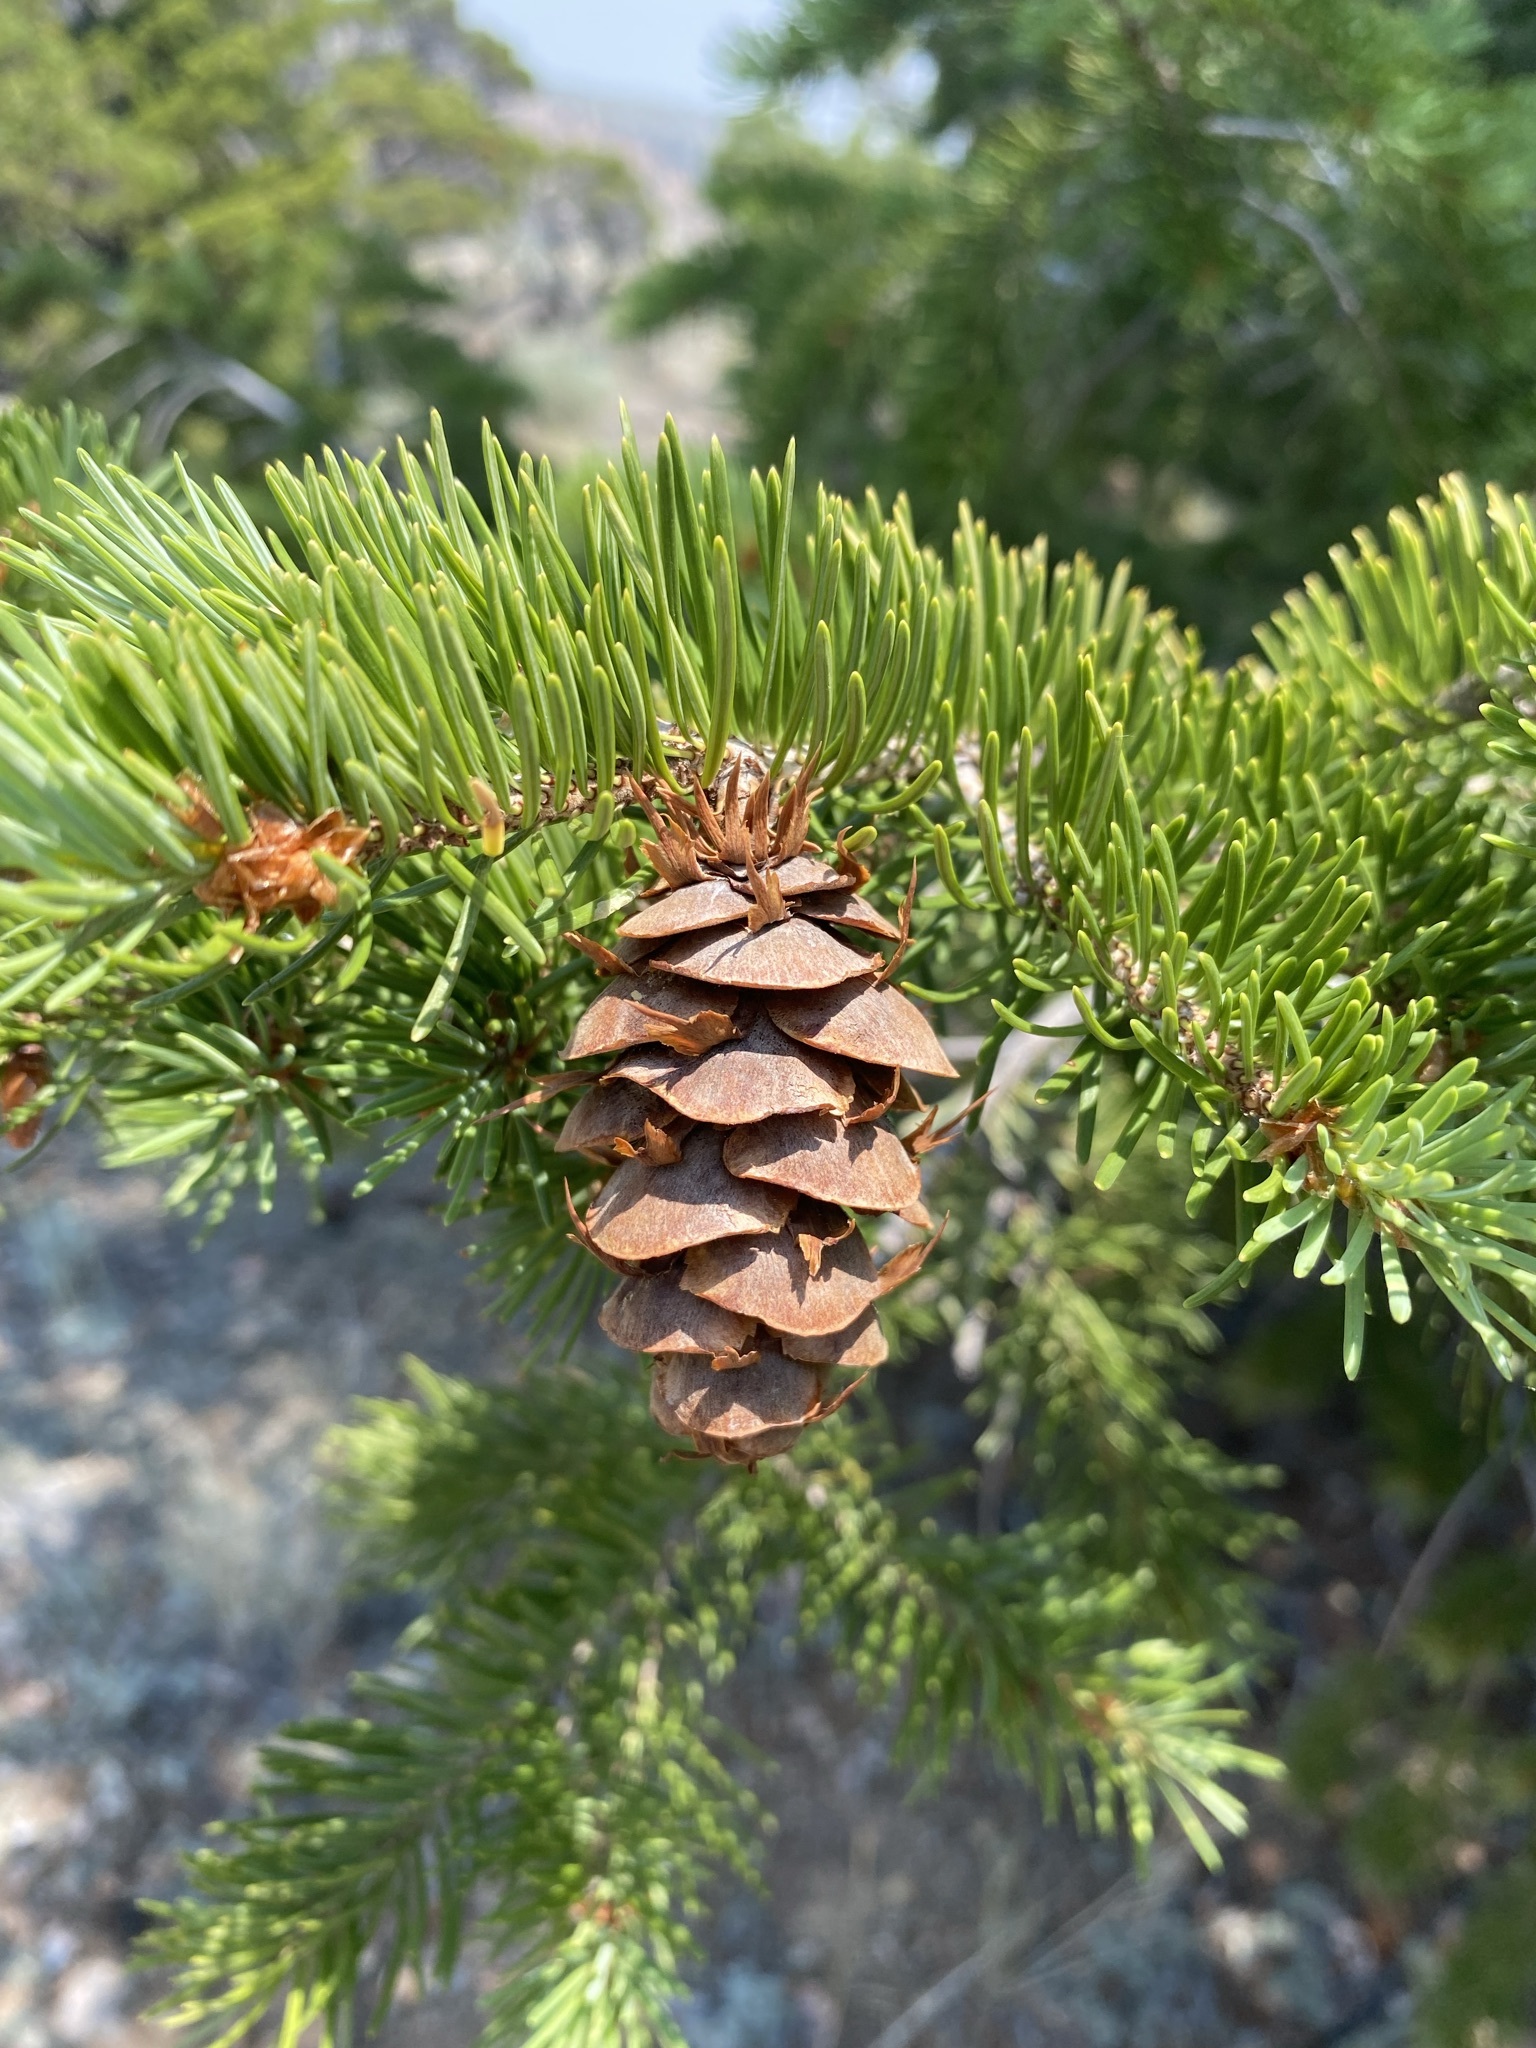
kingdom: Plantae
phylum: Tracheophyta
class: Pinopsida
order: Pinales
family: Pinaceae
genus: Pseudotsuga
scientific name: Pseudotsuga menziesii
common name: Douglas fir
